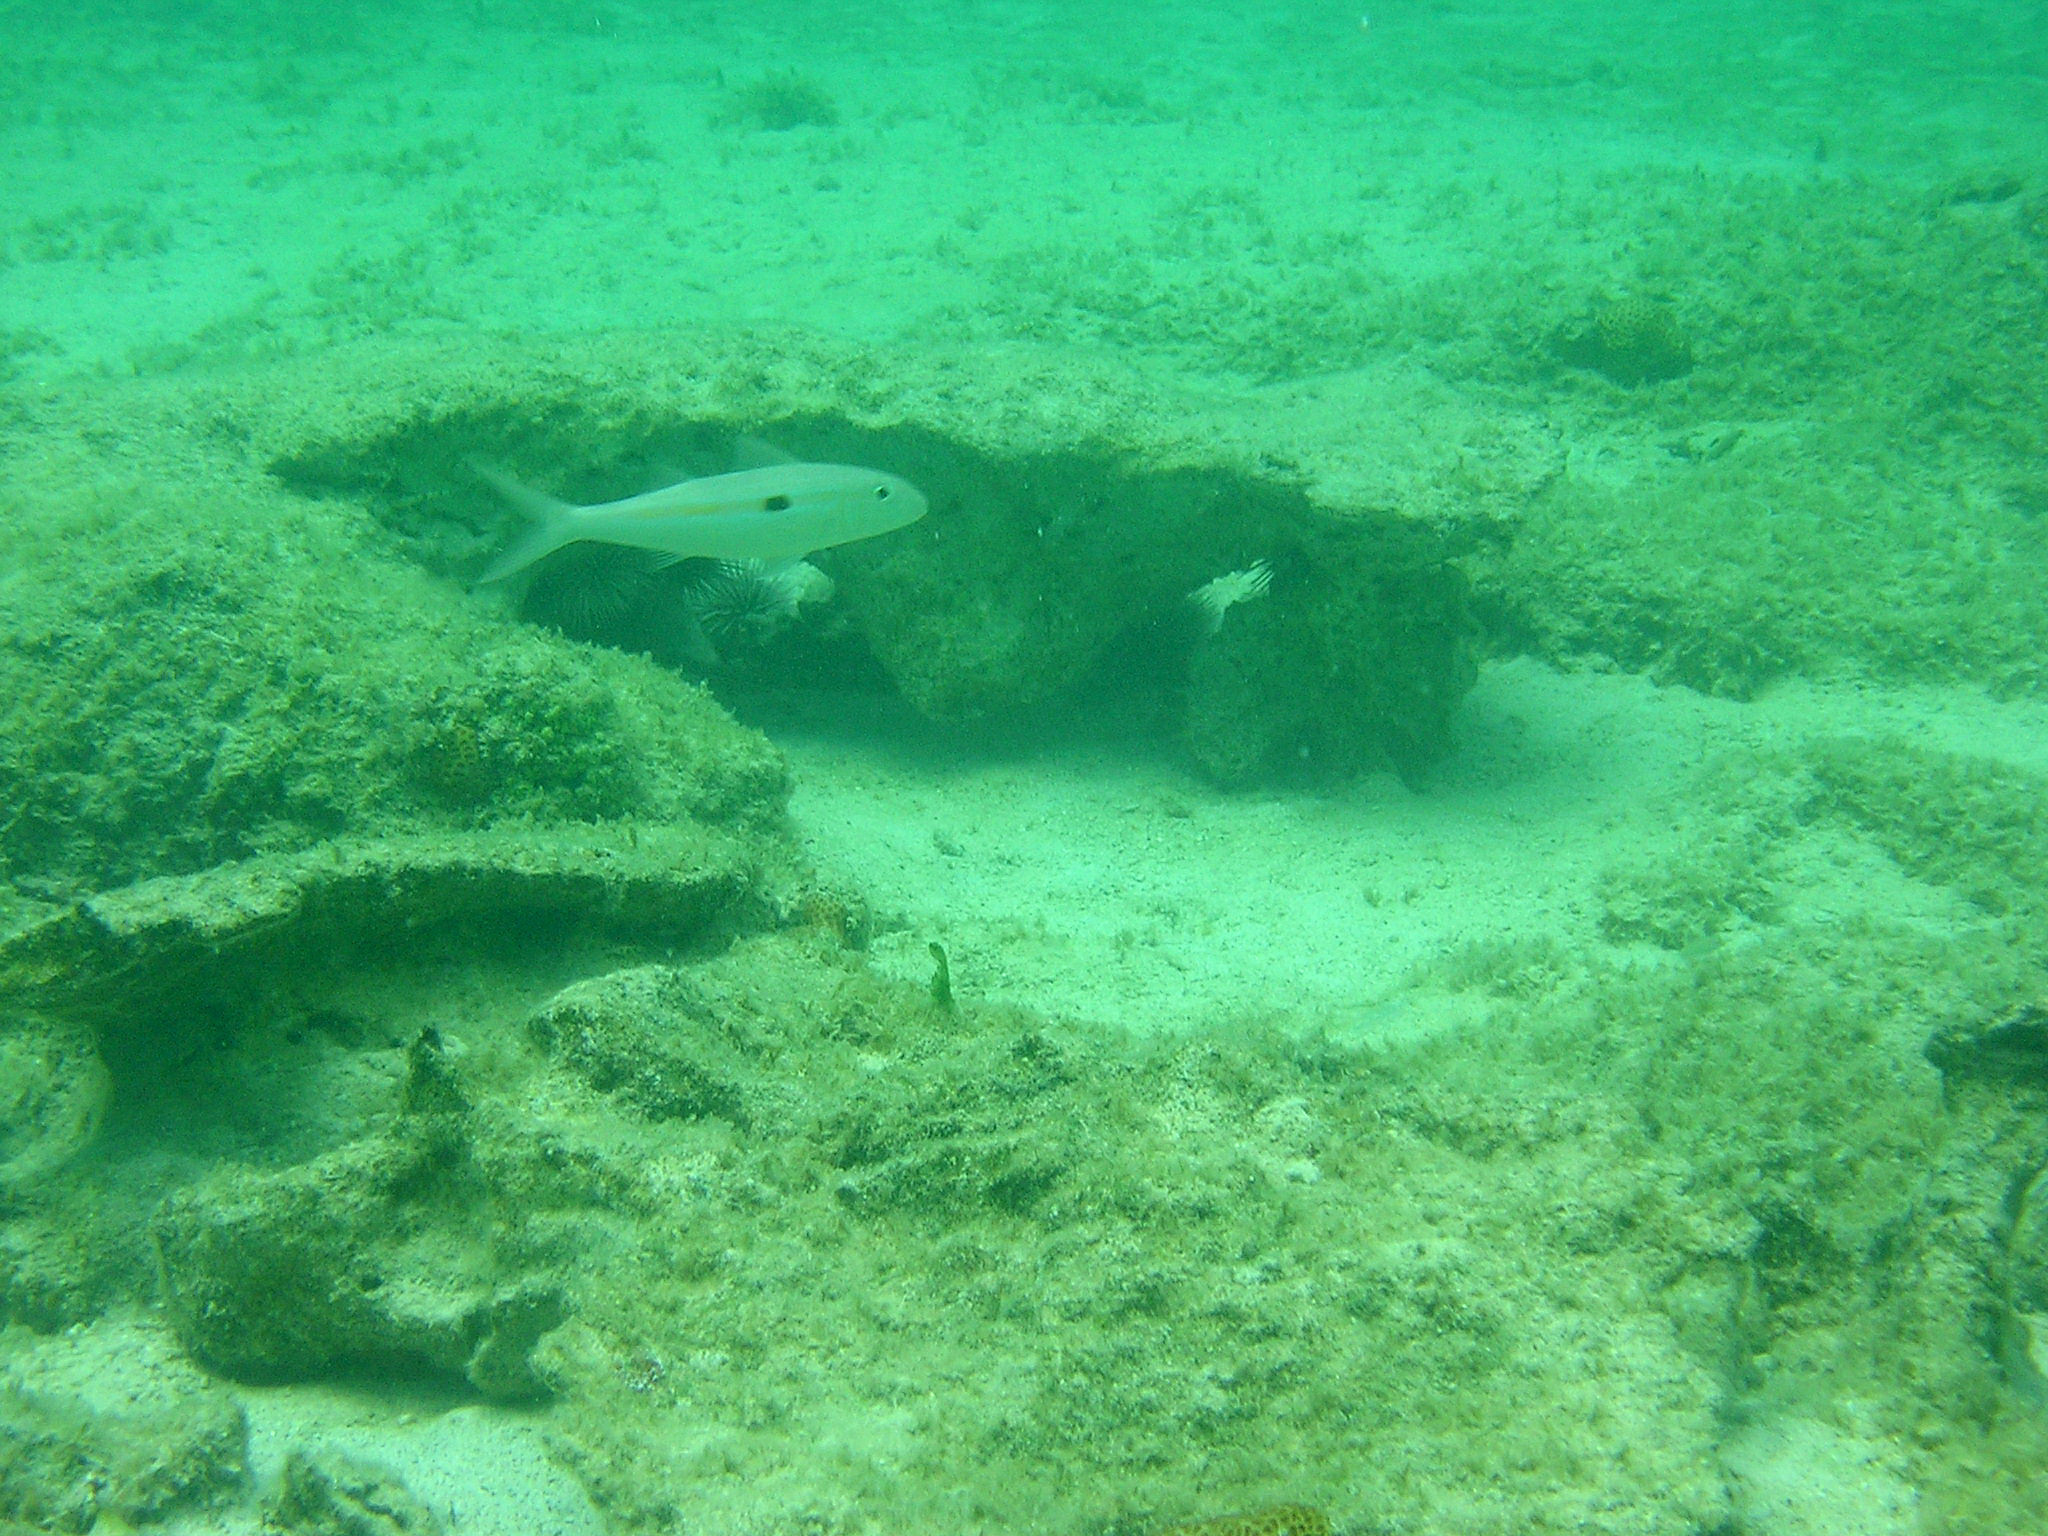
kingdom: Animalia
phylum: Chordata
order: Perciformes
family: Mullidae
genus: Mulloidichthys
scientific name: Mulloidichthys flavolineatus
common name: Yellowstripe goatfish
